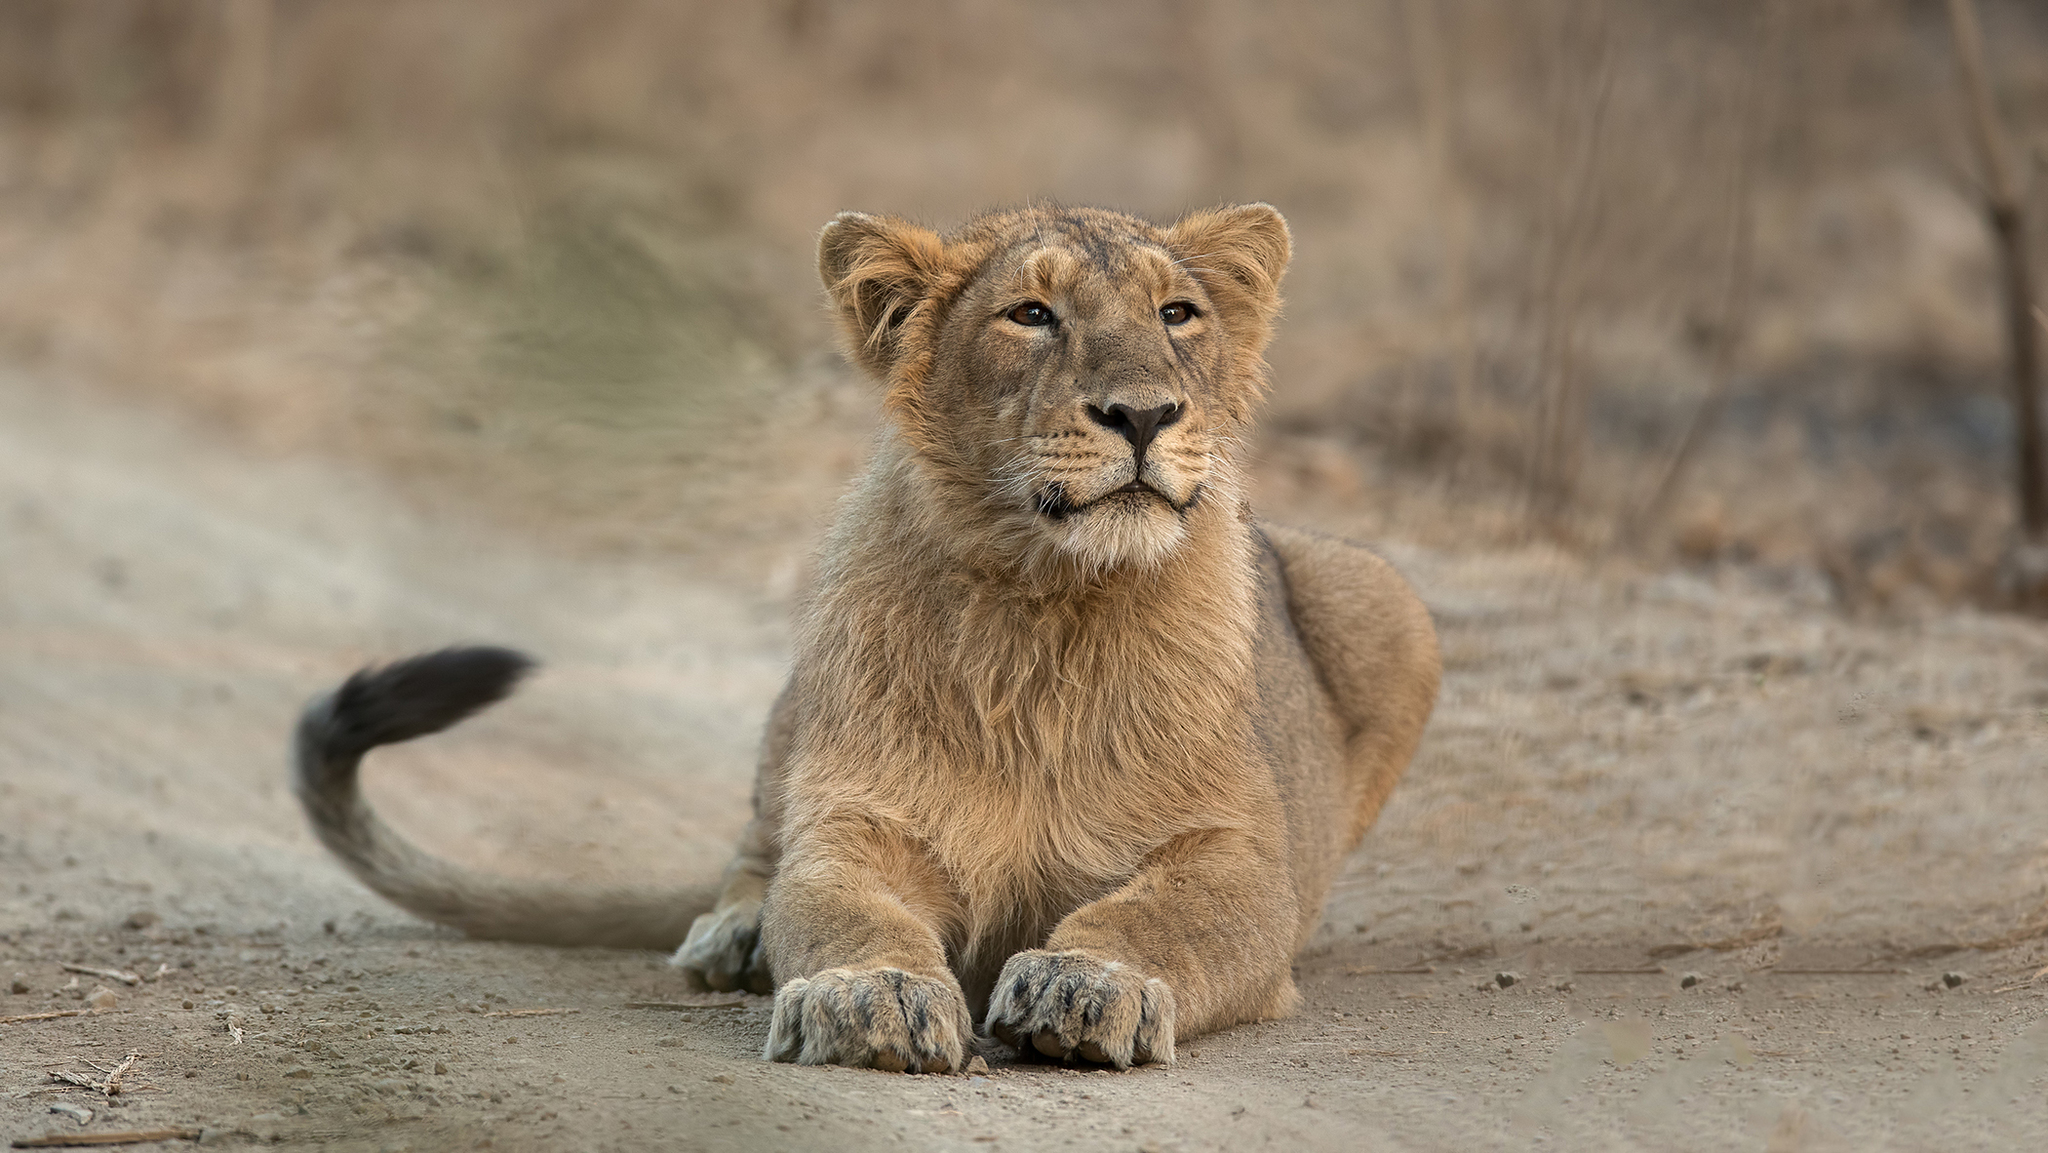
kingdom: Animalia
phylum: Chordata
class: Mammalia
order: Carnivora
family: Felidae
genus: Panthera
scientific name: Panthera leo
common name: Lion
